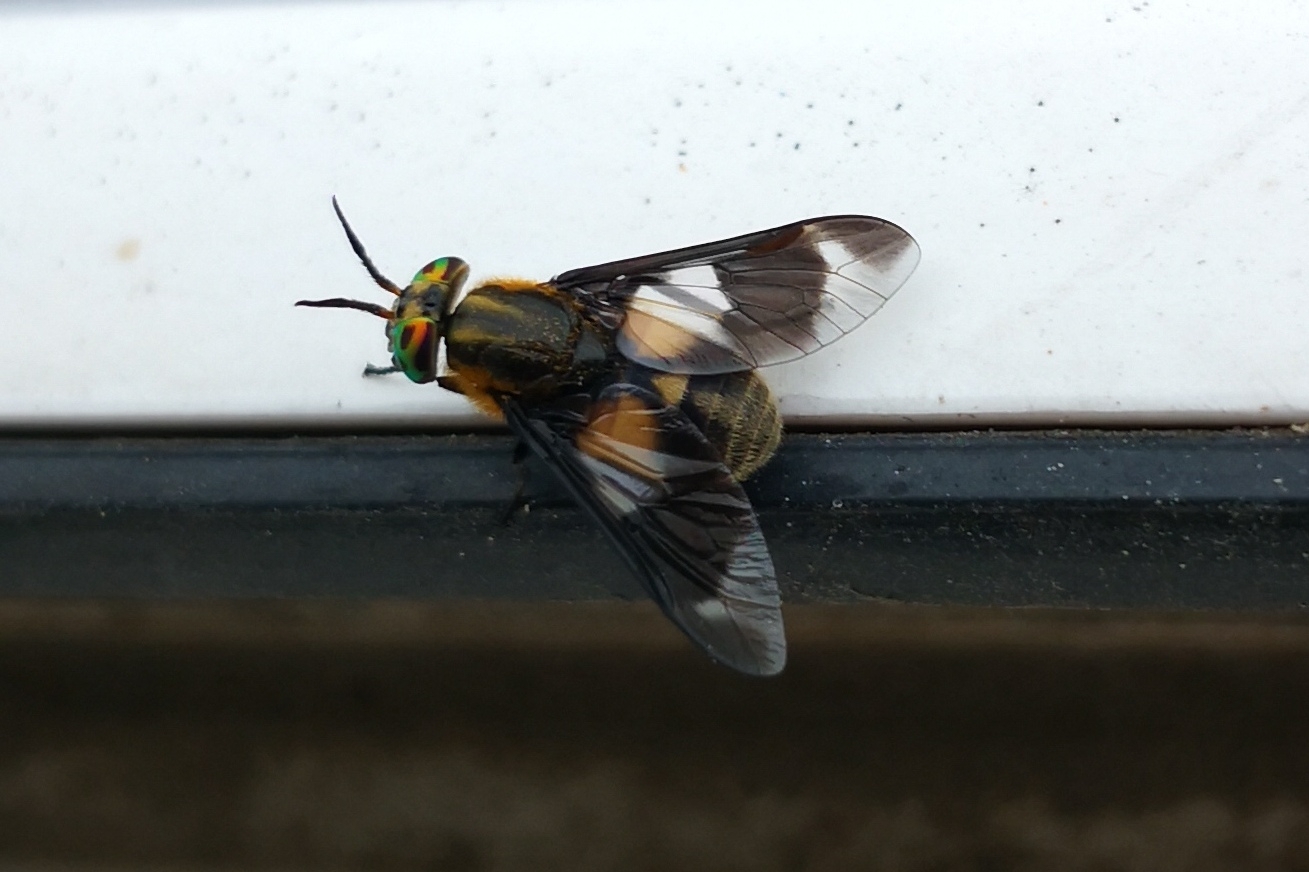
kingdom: Animalia
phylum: Arthropoda
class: Insecta
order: Diptera
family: Tabanidae
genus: Chrysops
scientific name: Chrysops caecutiens
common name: Splayed deerfly
